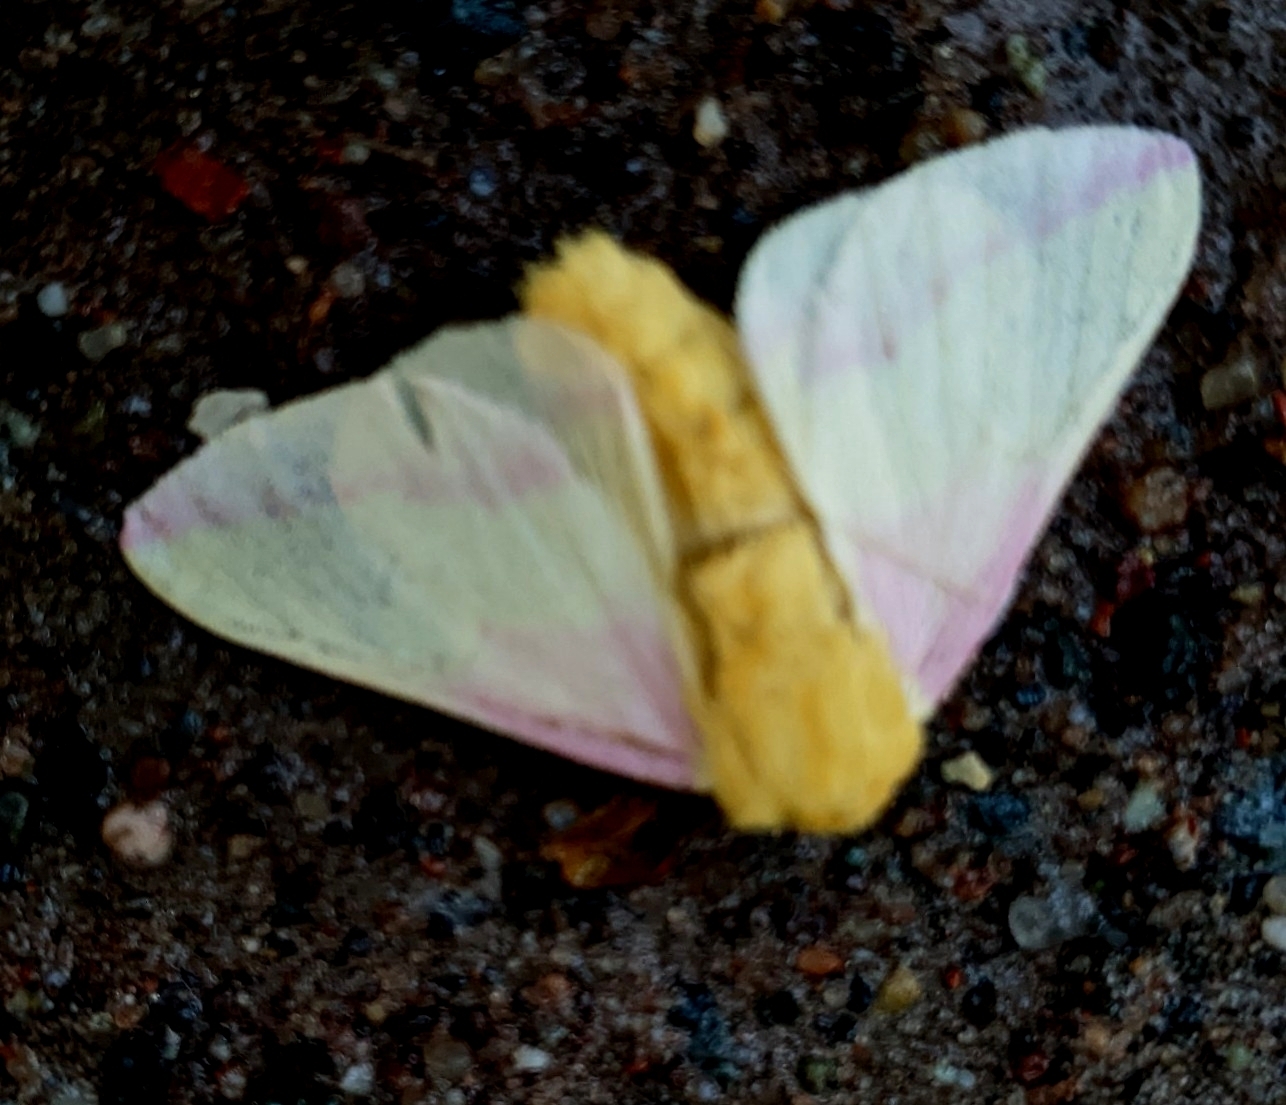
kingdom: Animalia
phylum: Arthropoda
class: Insecta
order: Lepidoptera
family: Saturniidae
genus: Dryocampa
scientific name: Dryocampa rubicunda
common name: Rosy maple moth
